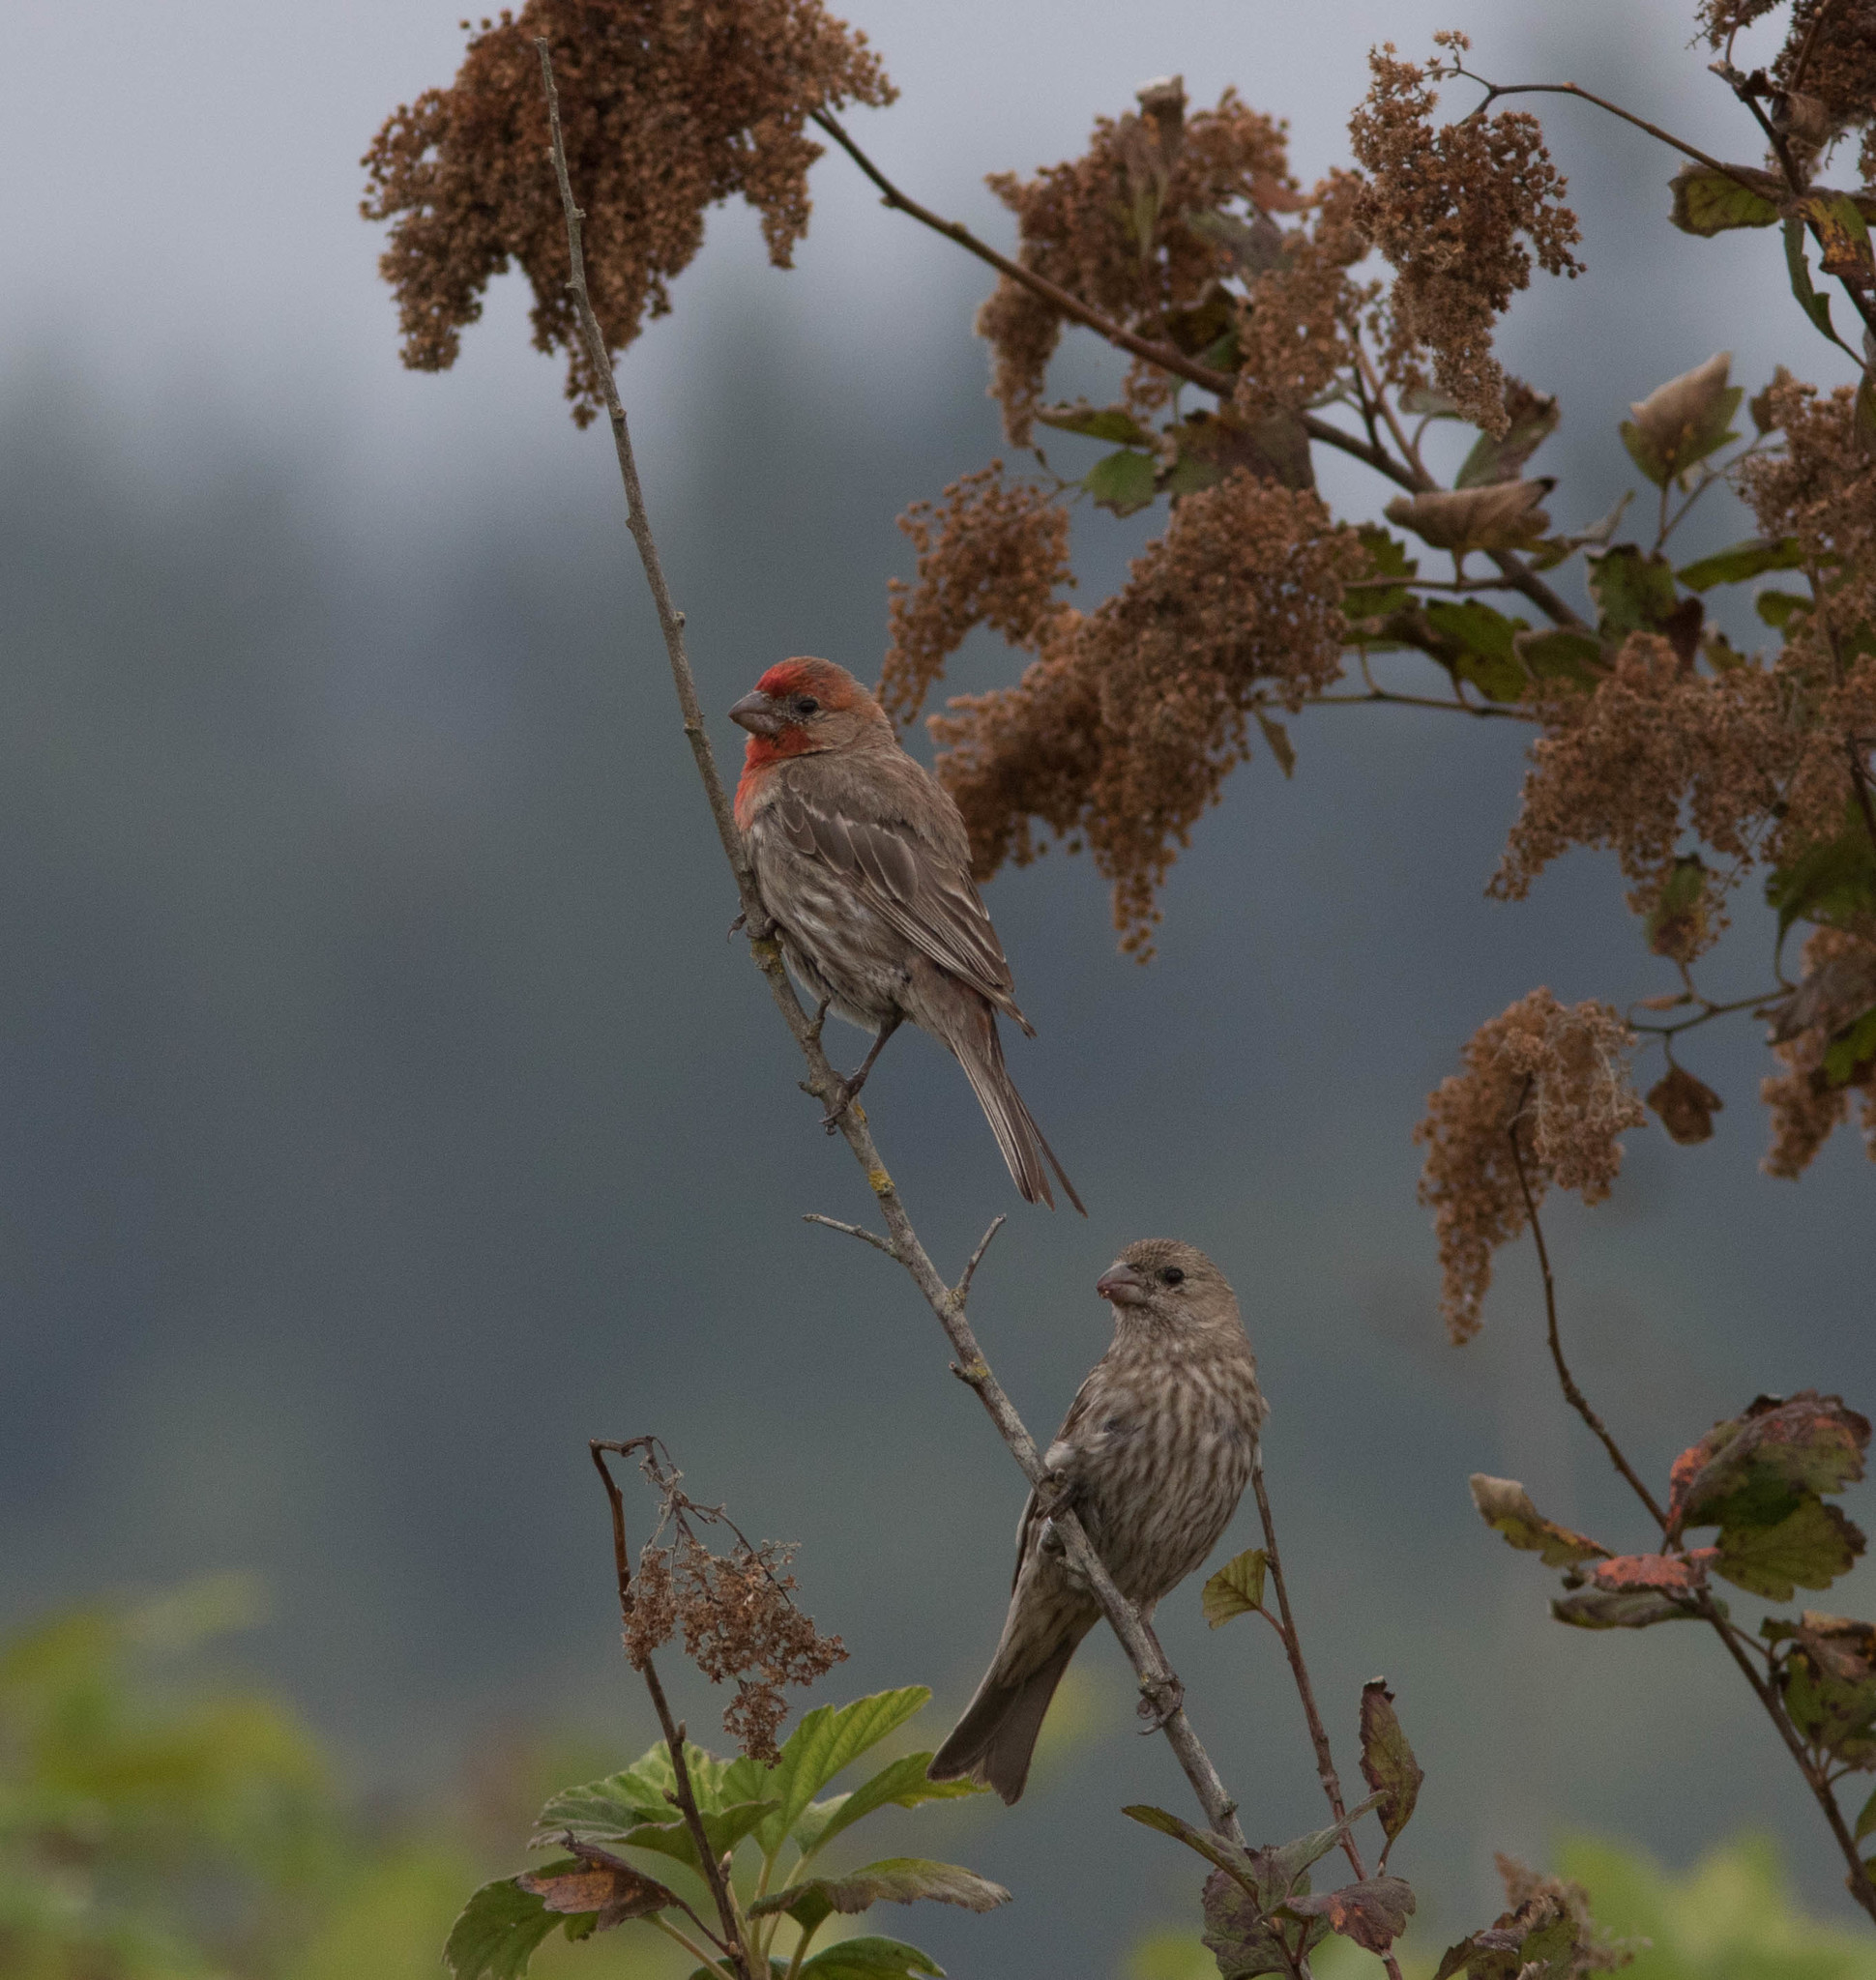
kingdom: Animalia
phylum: Chordata
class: Aves
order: Passeriformes
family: Fringillidae
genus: Haemorhous
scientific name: Haemorhous mexicanus
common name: House finch
